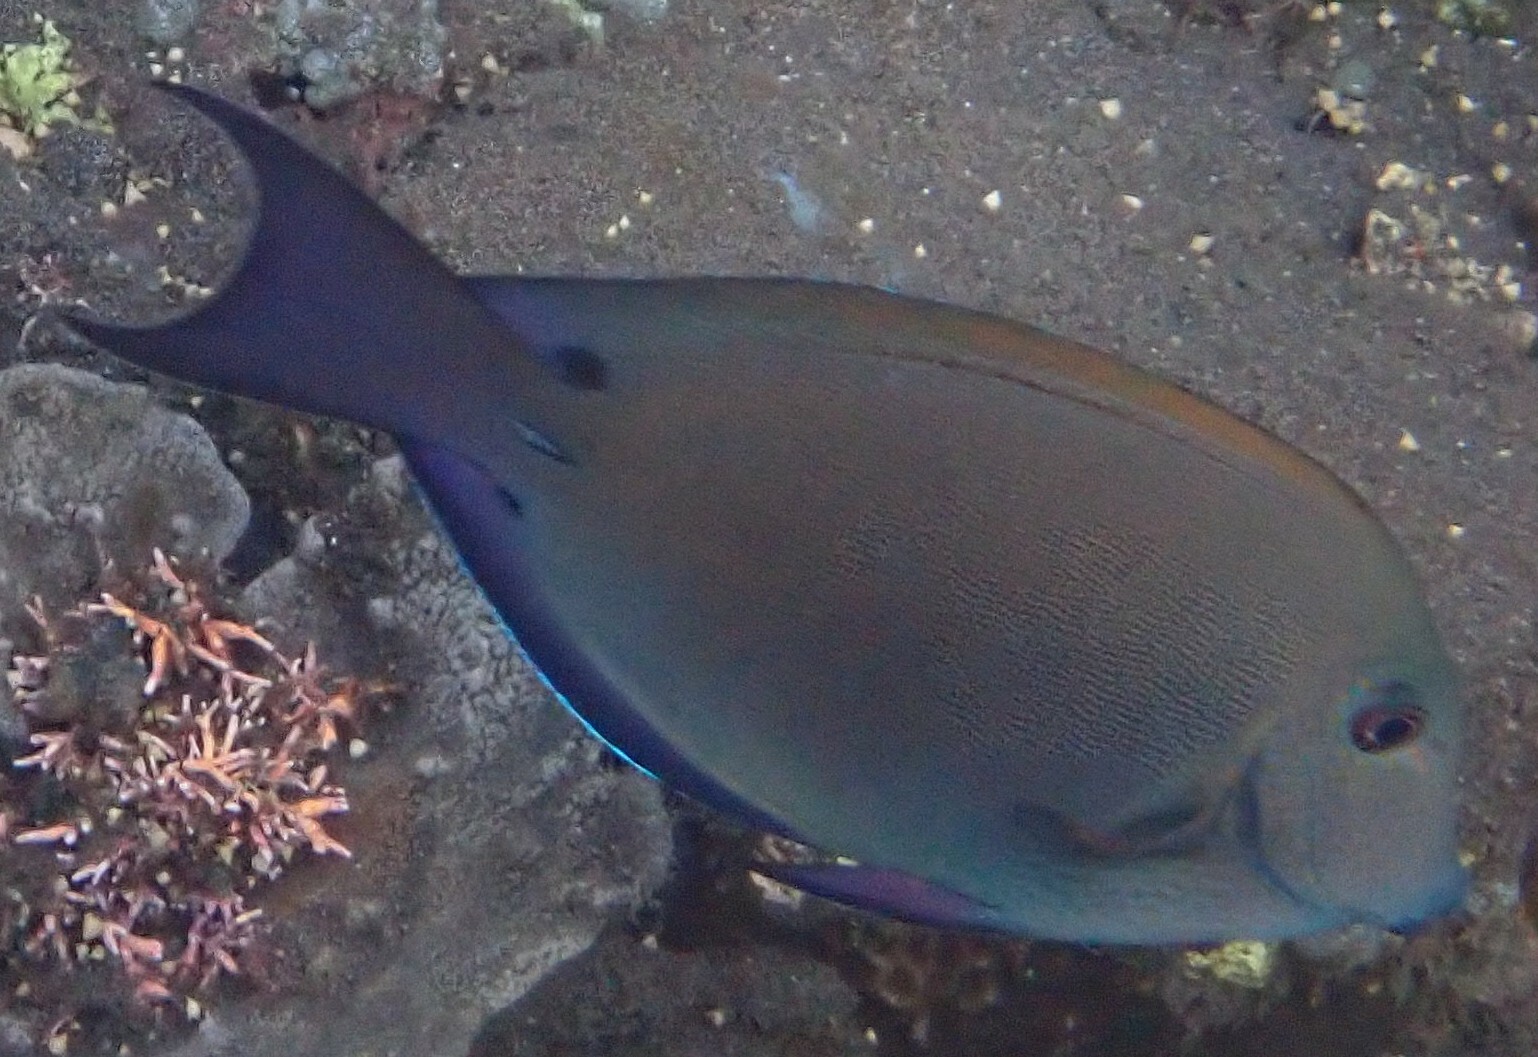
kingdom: Animalia
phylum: Chordata
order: Perciformes
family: Acanthuridae
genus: Acanthurus
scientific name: Acanthurus nigrofuscus
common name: Blackspot surgeonfish
